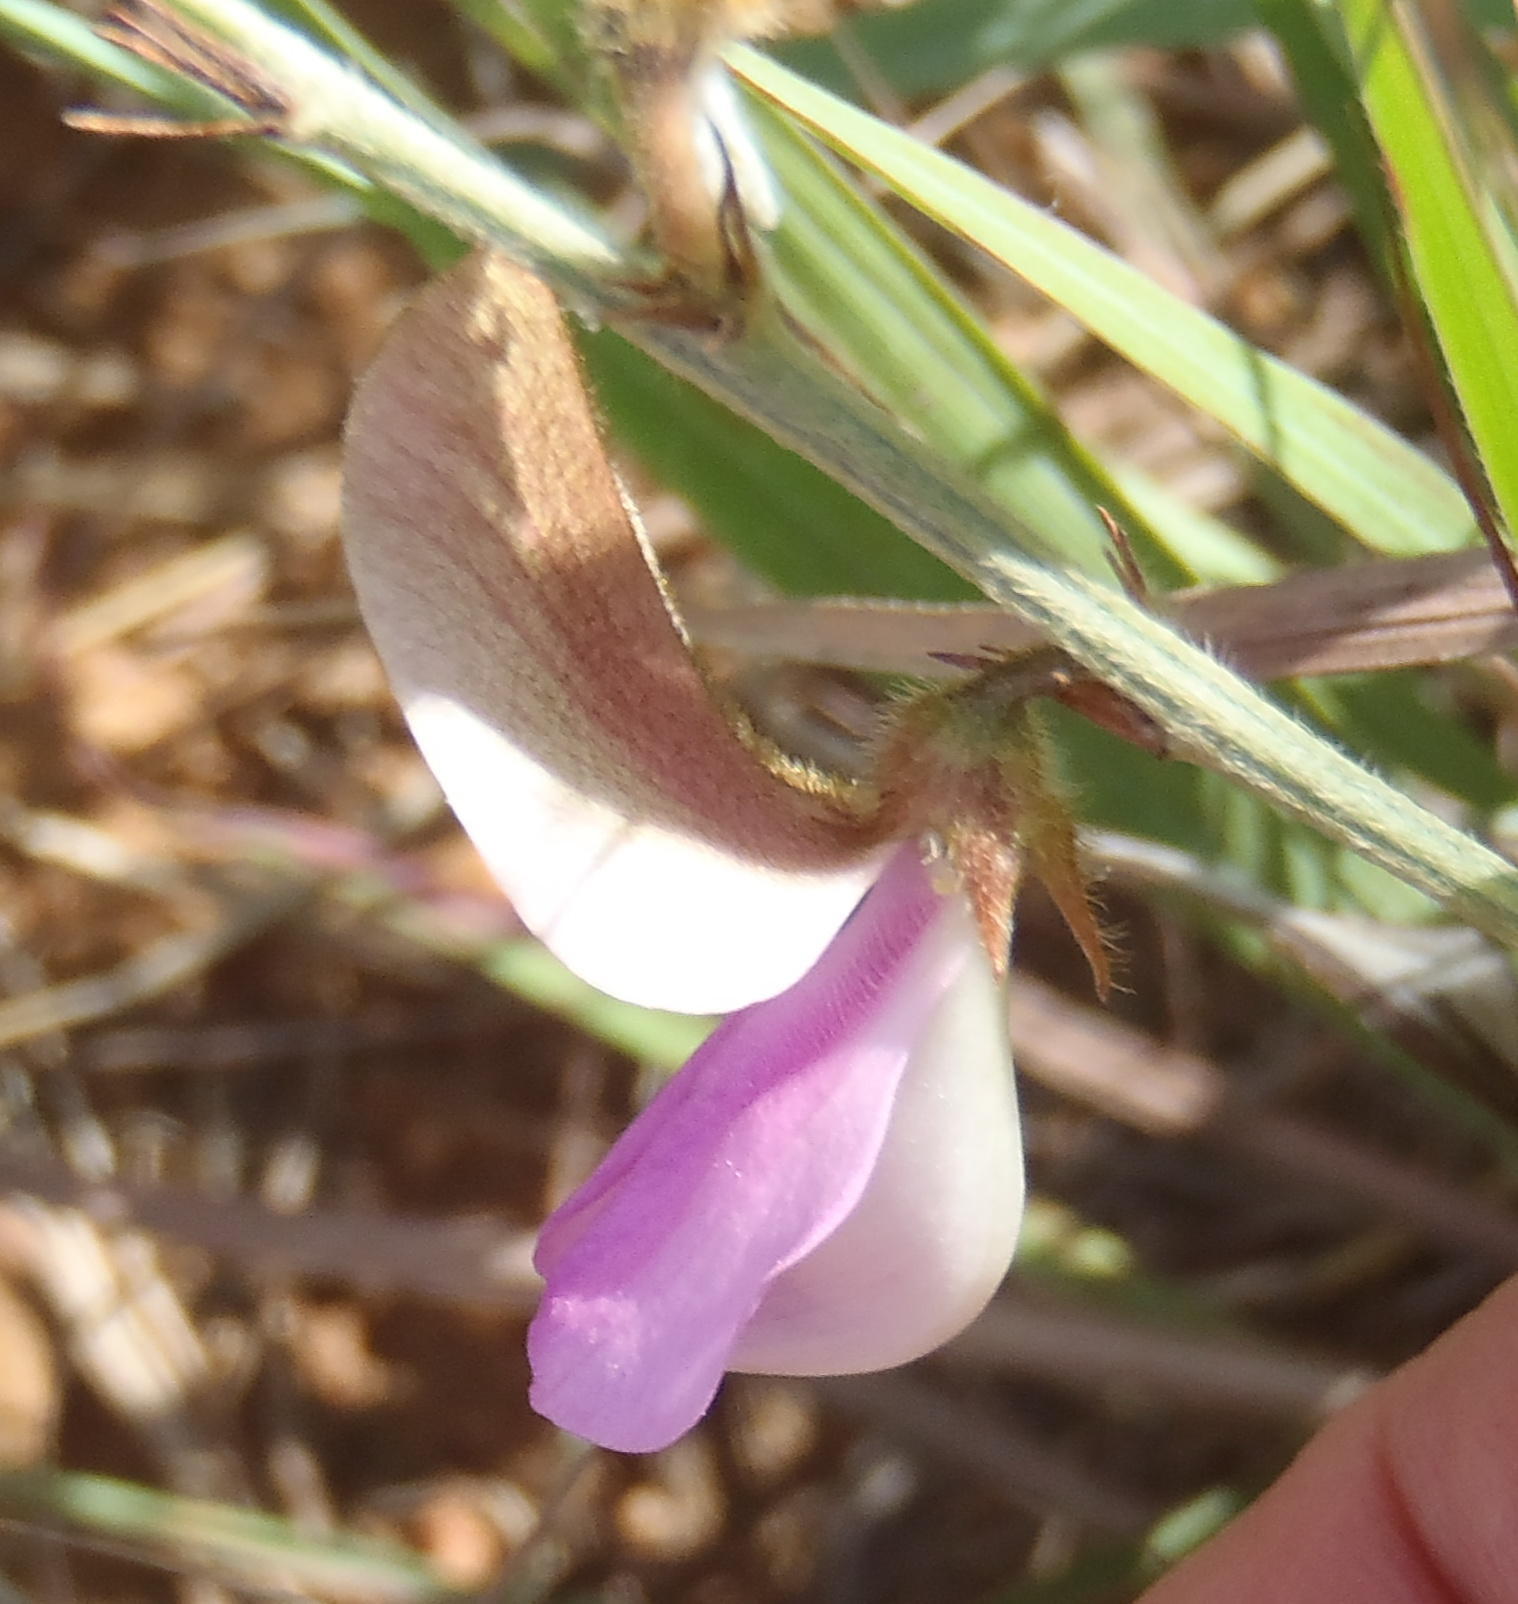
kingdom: Plantae
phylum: Tracheophyta
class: Magnoliopsida
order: Fabales
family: Fabaceae
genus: Tephrosia
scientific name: Tephrosia longipes
